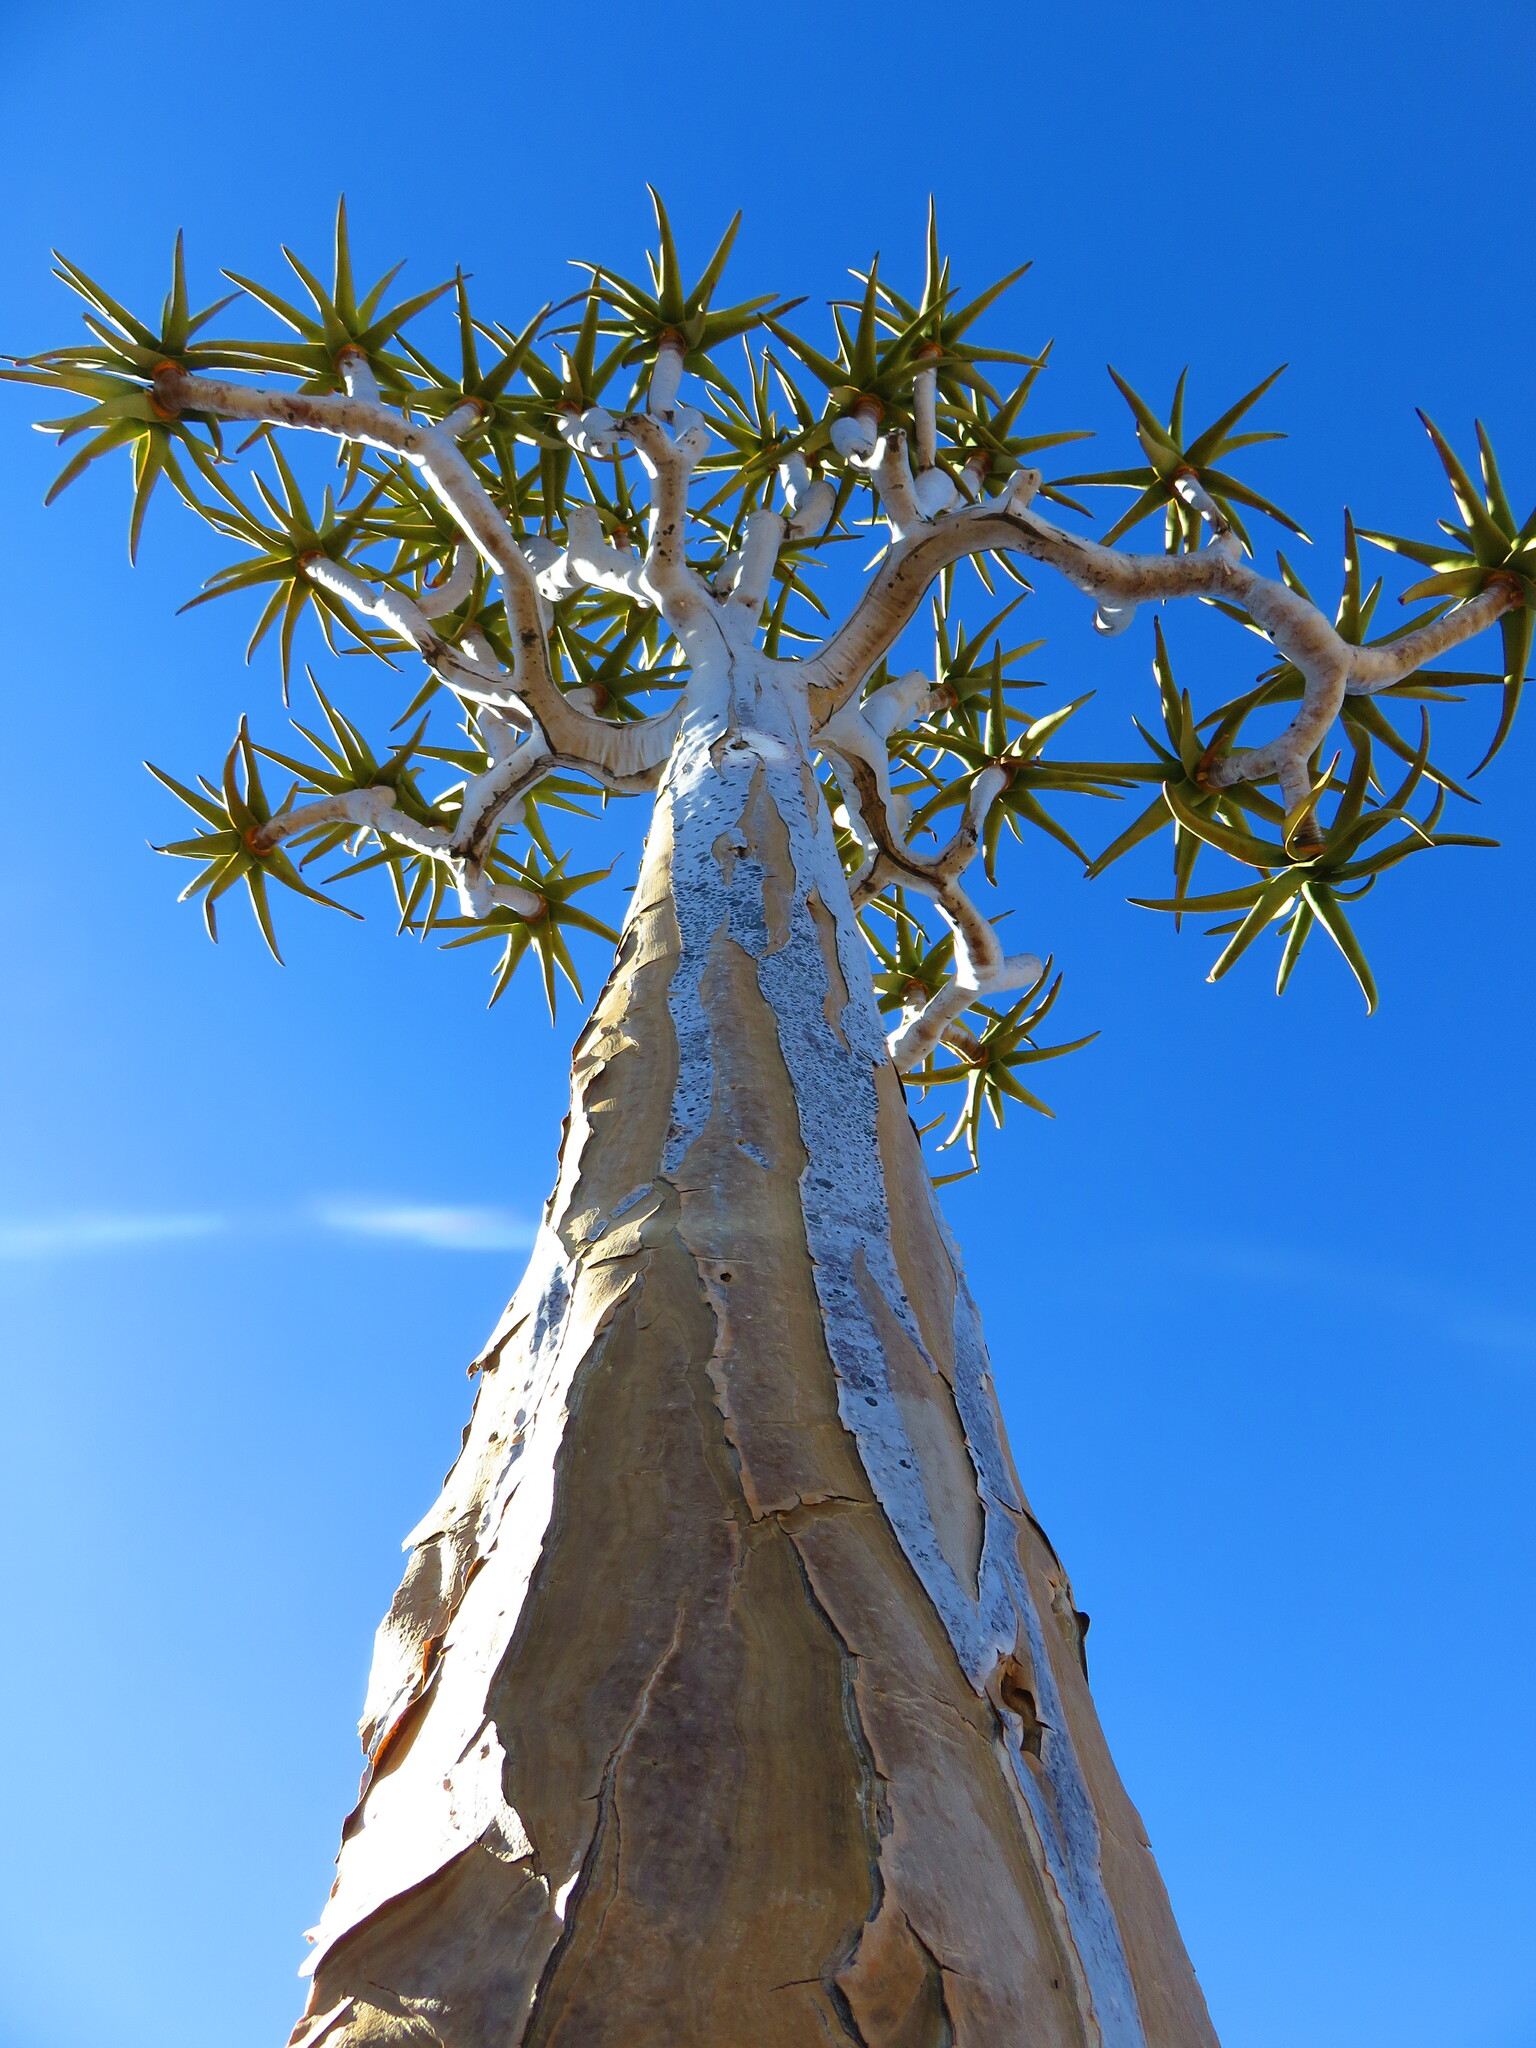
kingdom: Plantae
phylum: Tracheophyta
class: Liliopsida
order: Asparagales
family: Asphodelaceae
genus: Aloidendron
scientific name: Aloidendron dichotomum
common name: Quiver tree
